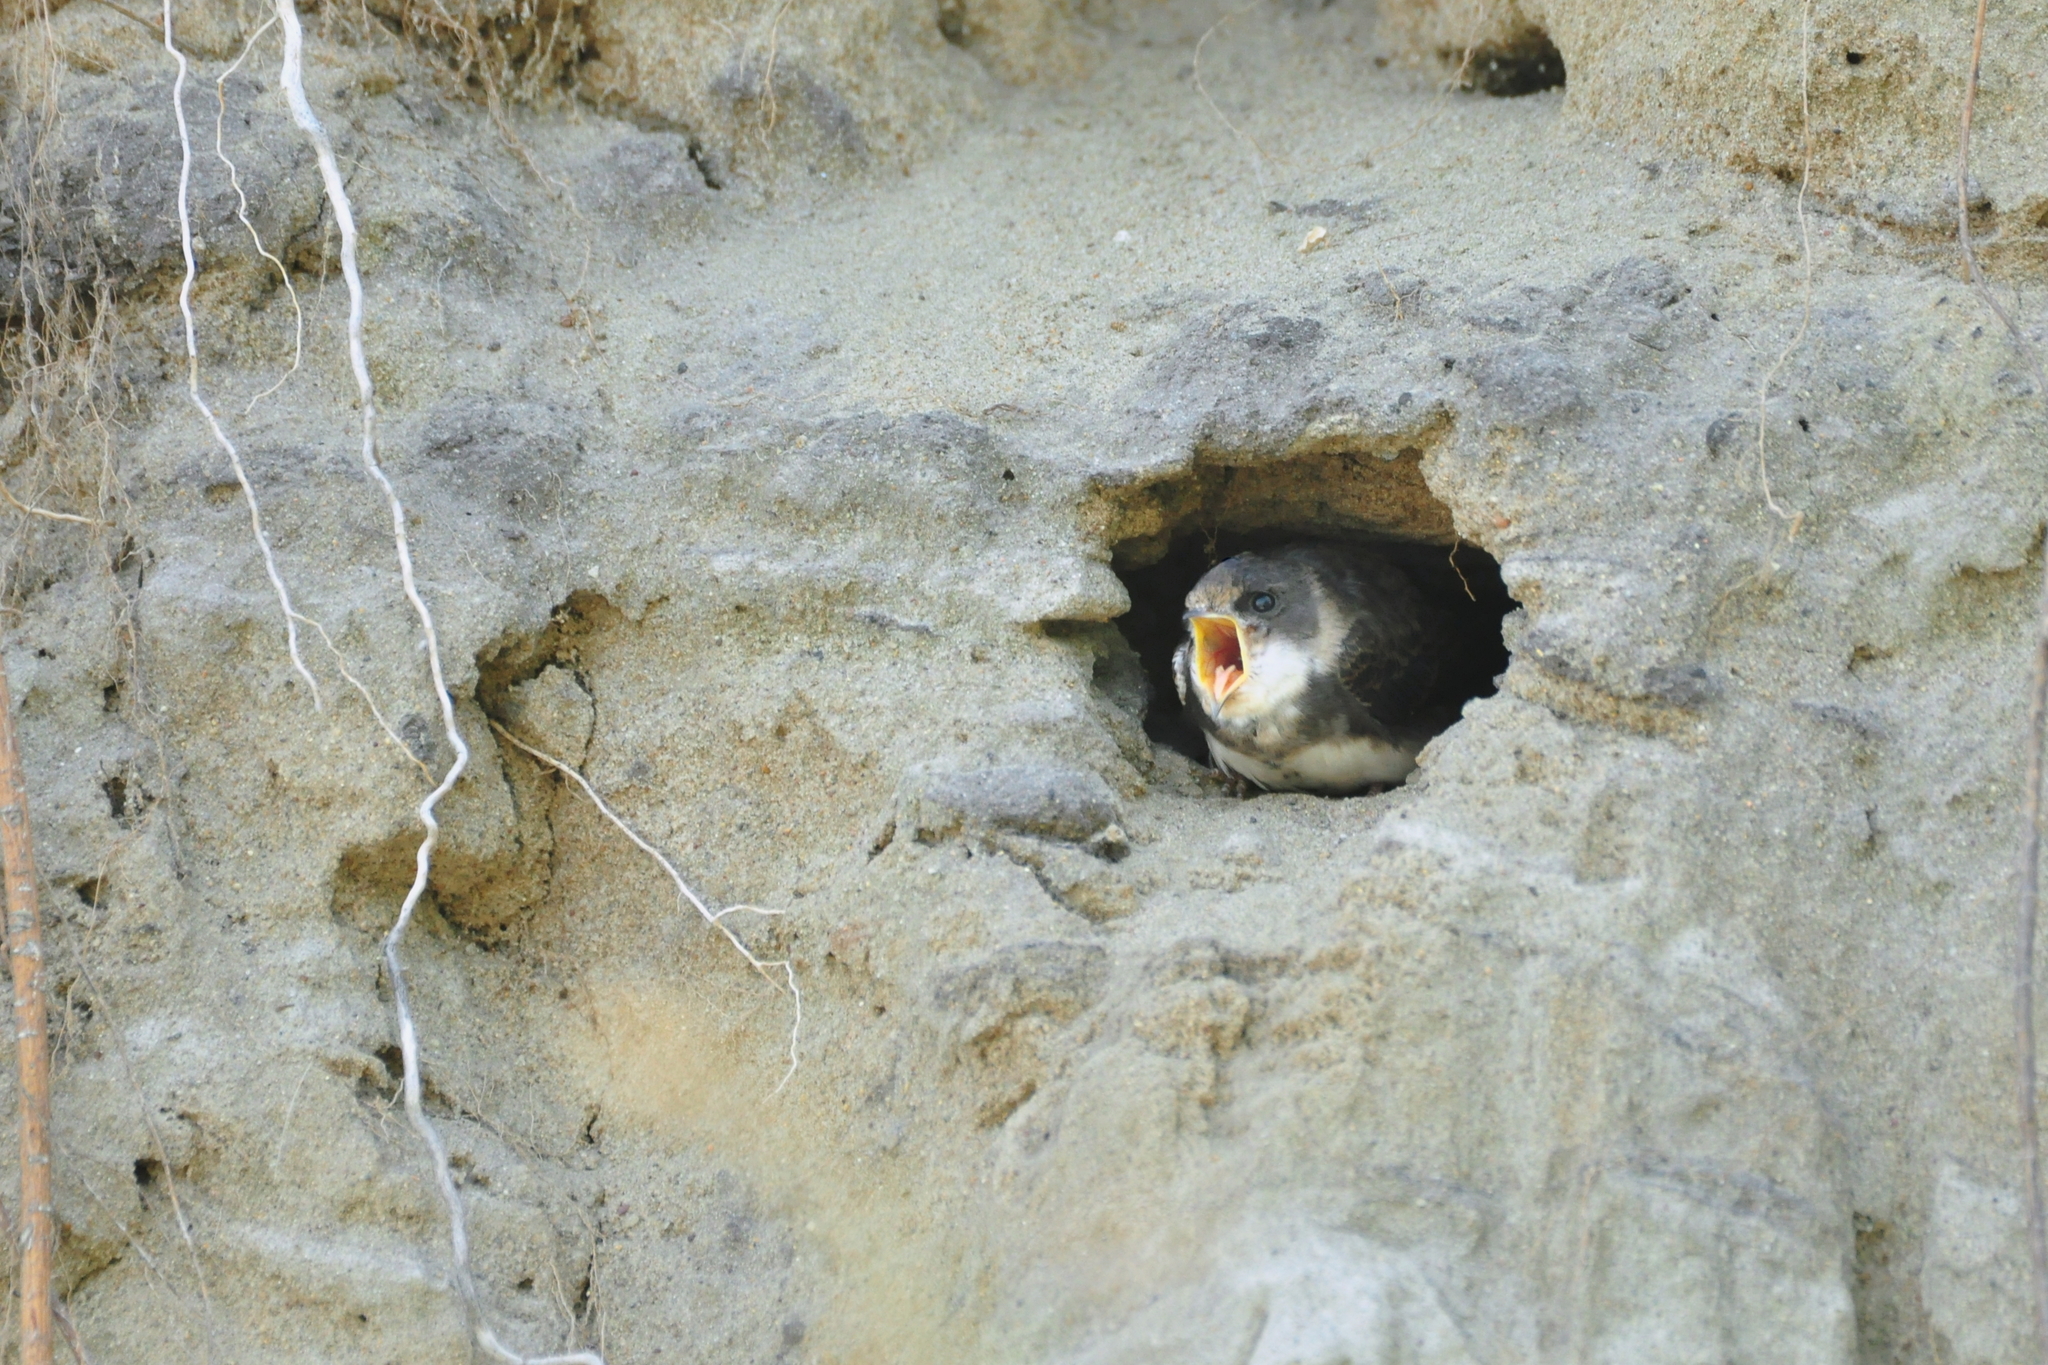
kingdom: Animalia
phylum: Chordata
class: Aves
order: Passeriformes
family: Hirundinidae
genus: Riparia
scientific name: Riparia riparia
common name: Sand martin
